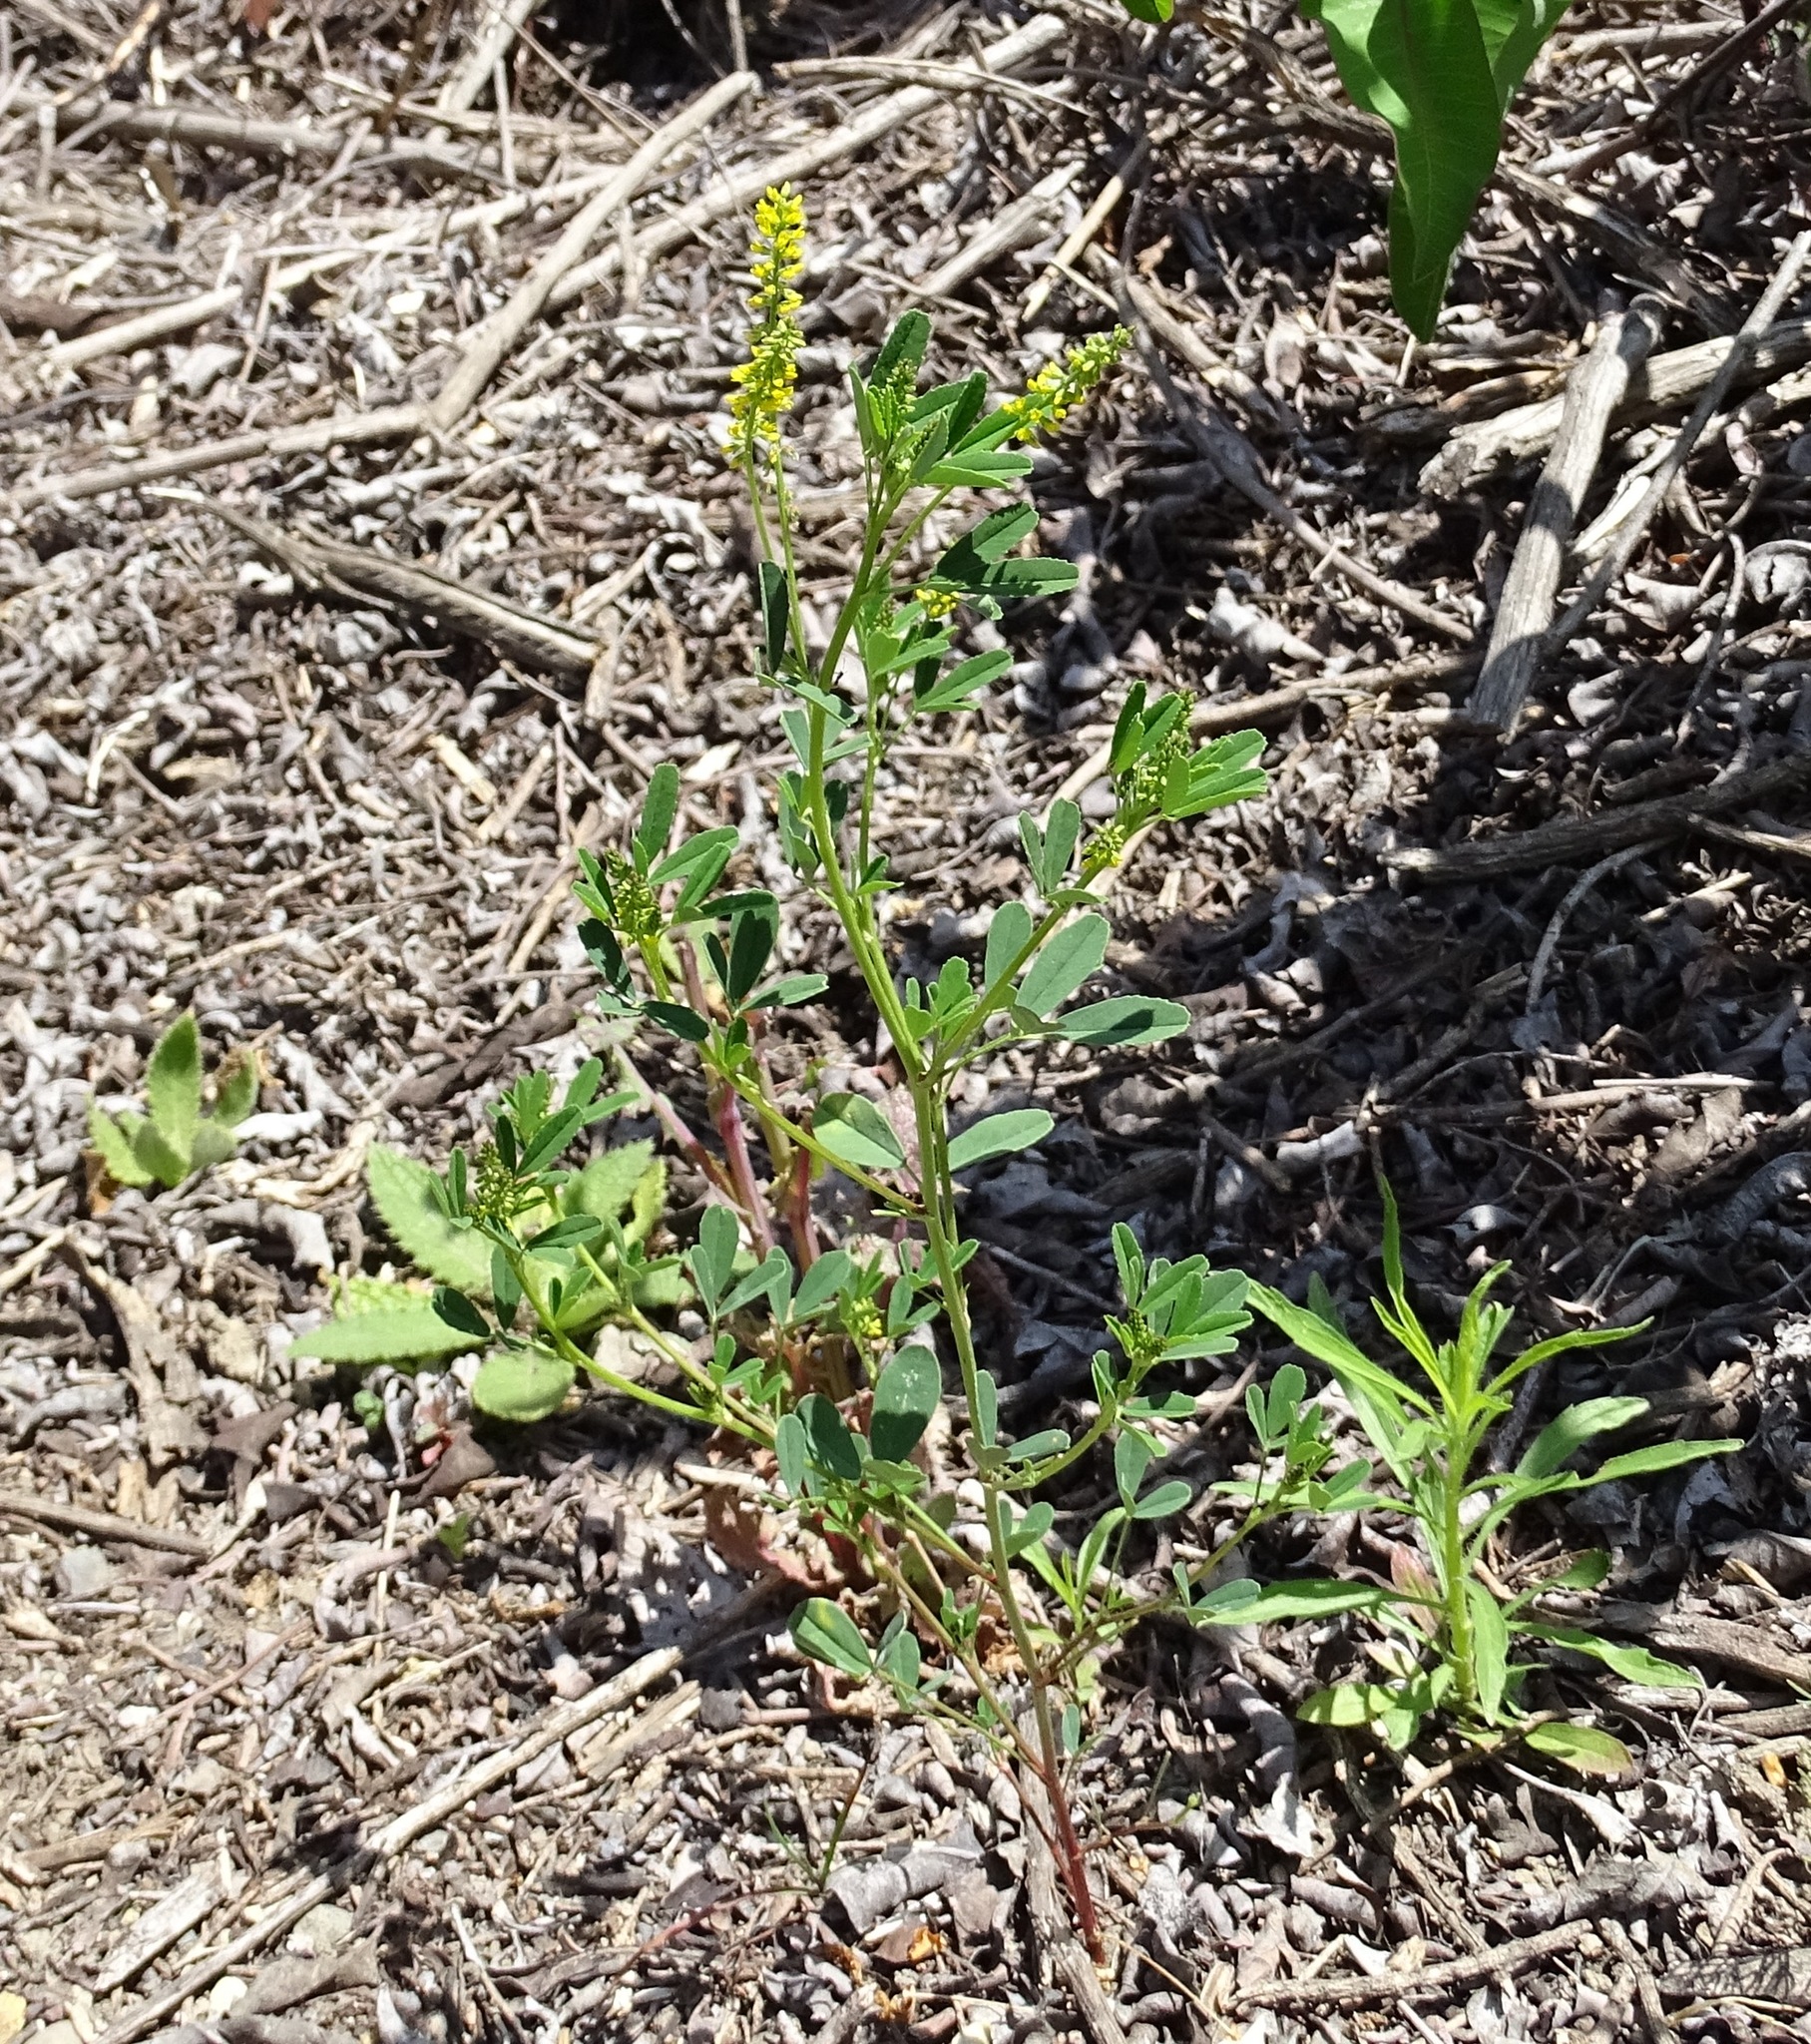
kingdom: Plantae
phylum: Tracheophyta
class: Magnoliopsida
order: Fabales
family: Fabaceae
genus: Melilotus
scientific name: Melilotus indicus
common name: Small melilot
